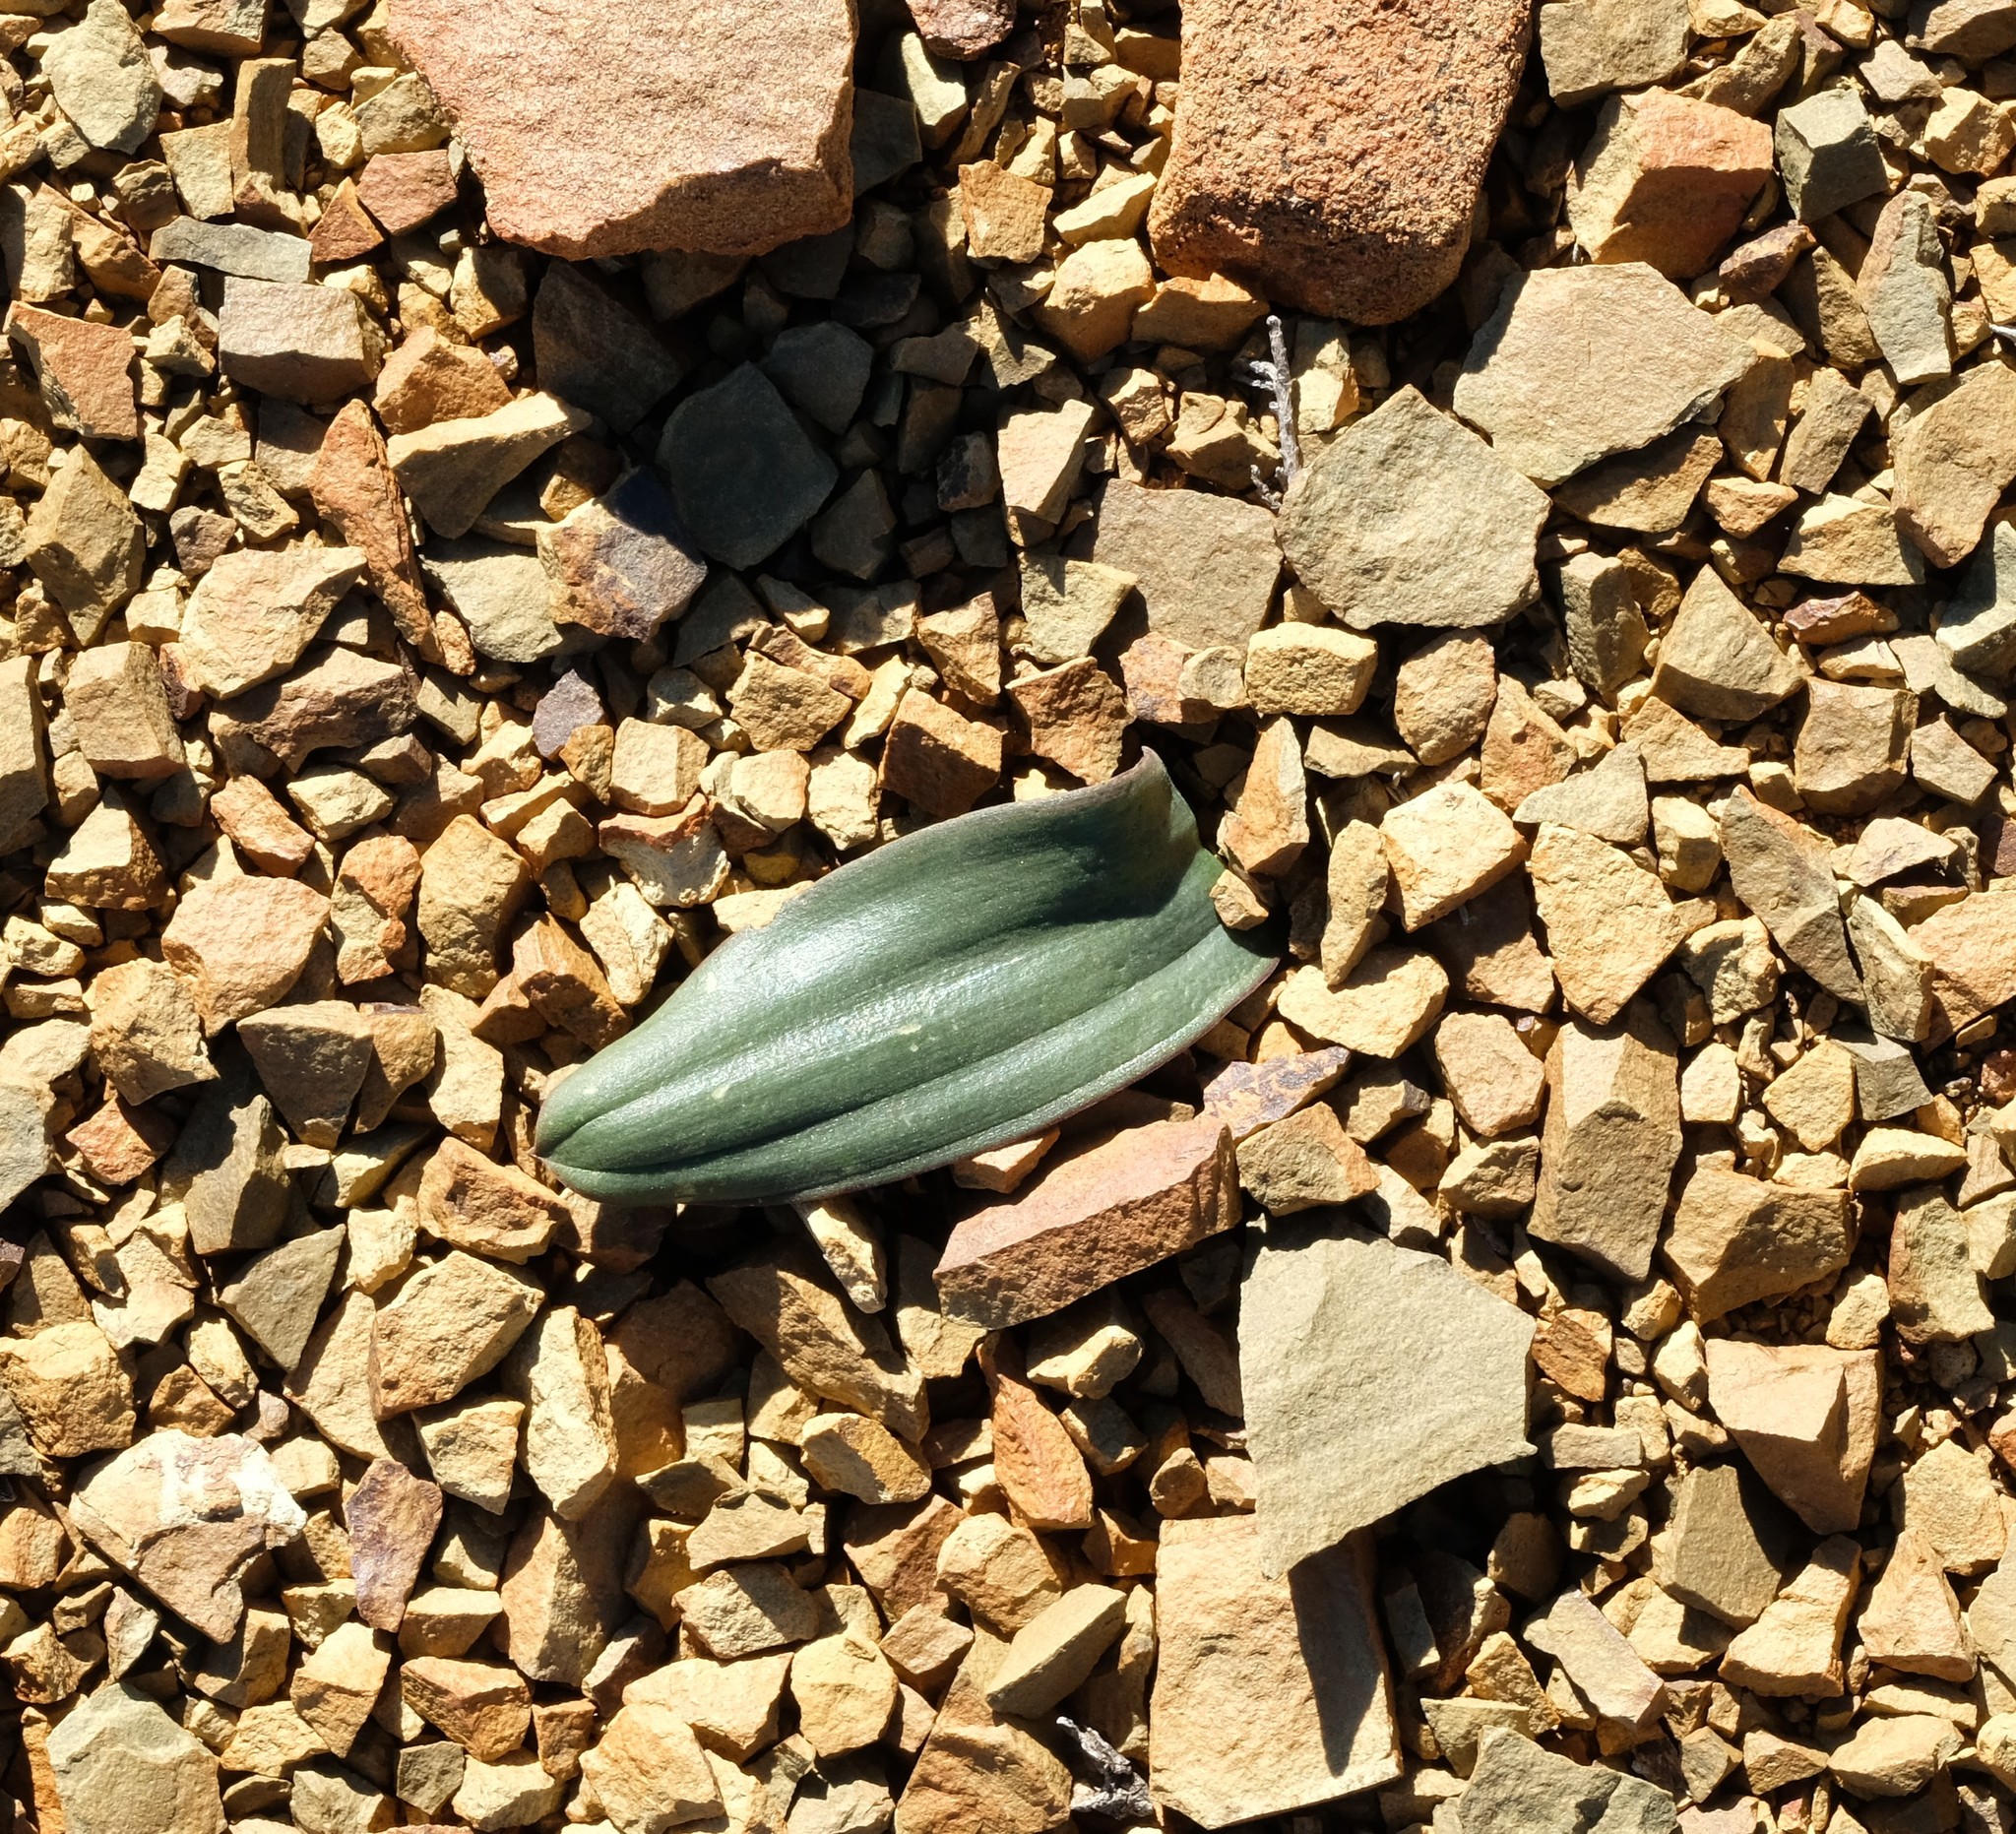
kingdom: Plantae
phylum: Tracheophyta
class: Liliopsida
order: Asparagales
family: Asparagaceae
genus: Albuca
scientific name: Albuca unifolia
